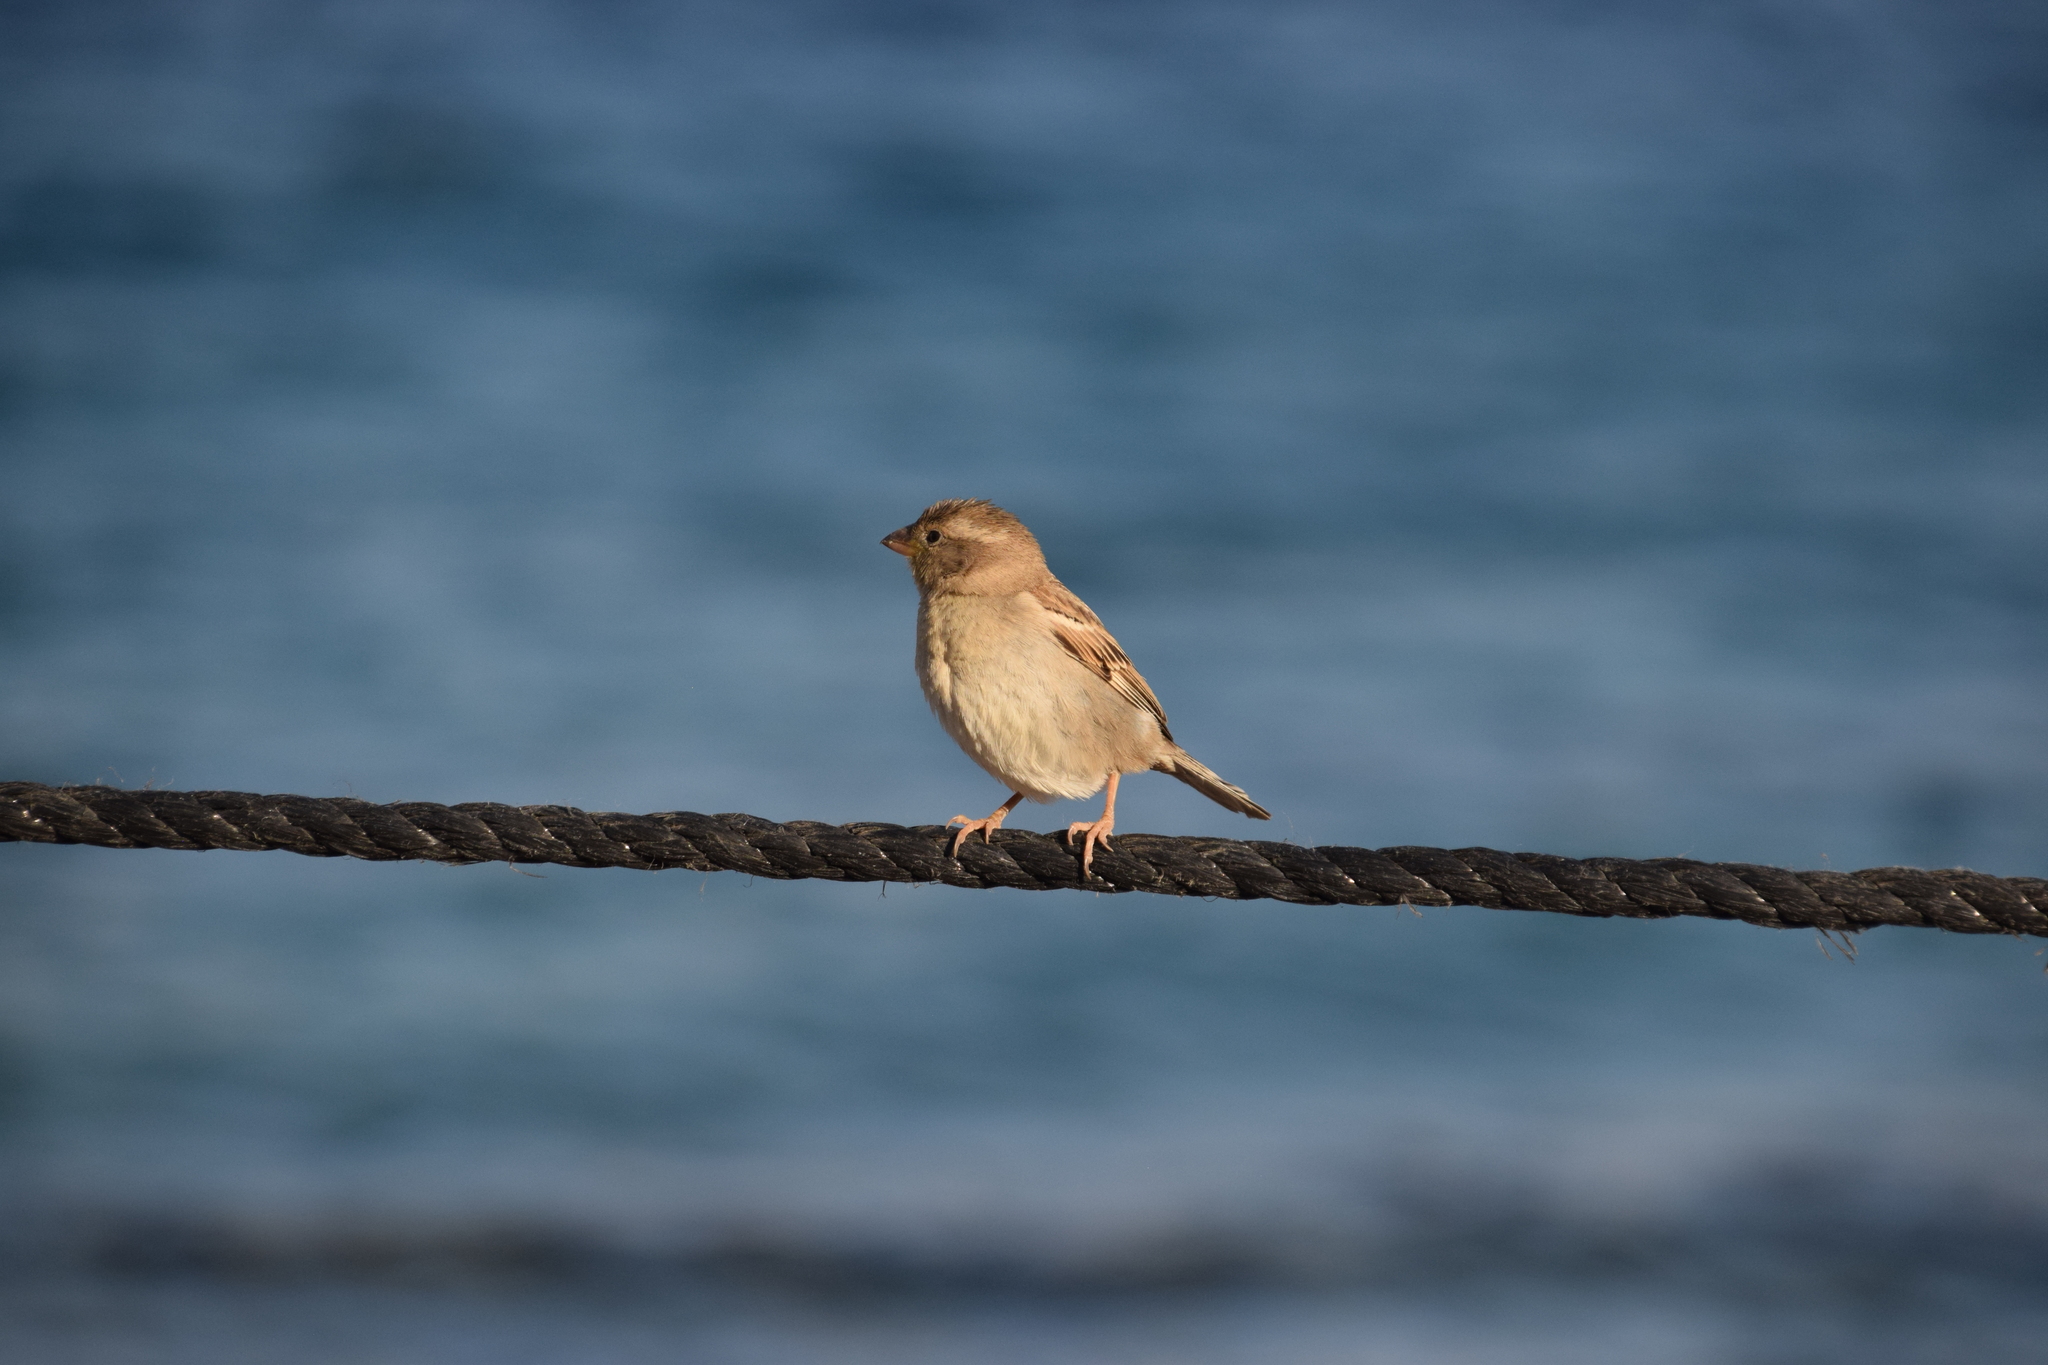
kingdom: Animalia
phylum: Chordata
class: Aves
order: Passeriformes
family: Passeridae
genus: Passer
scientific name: Passer domesticus
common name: House sparrow
